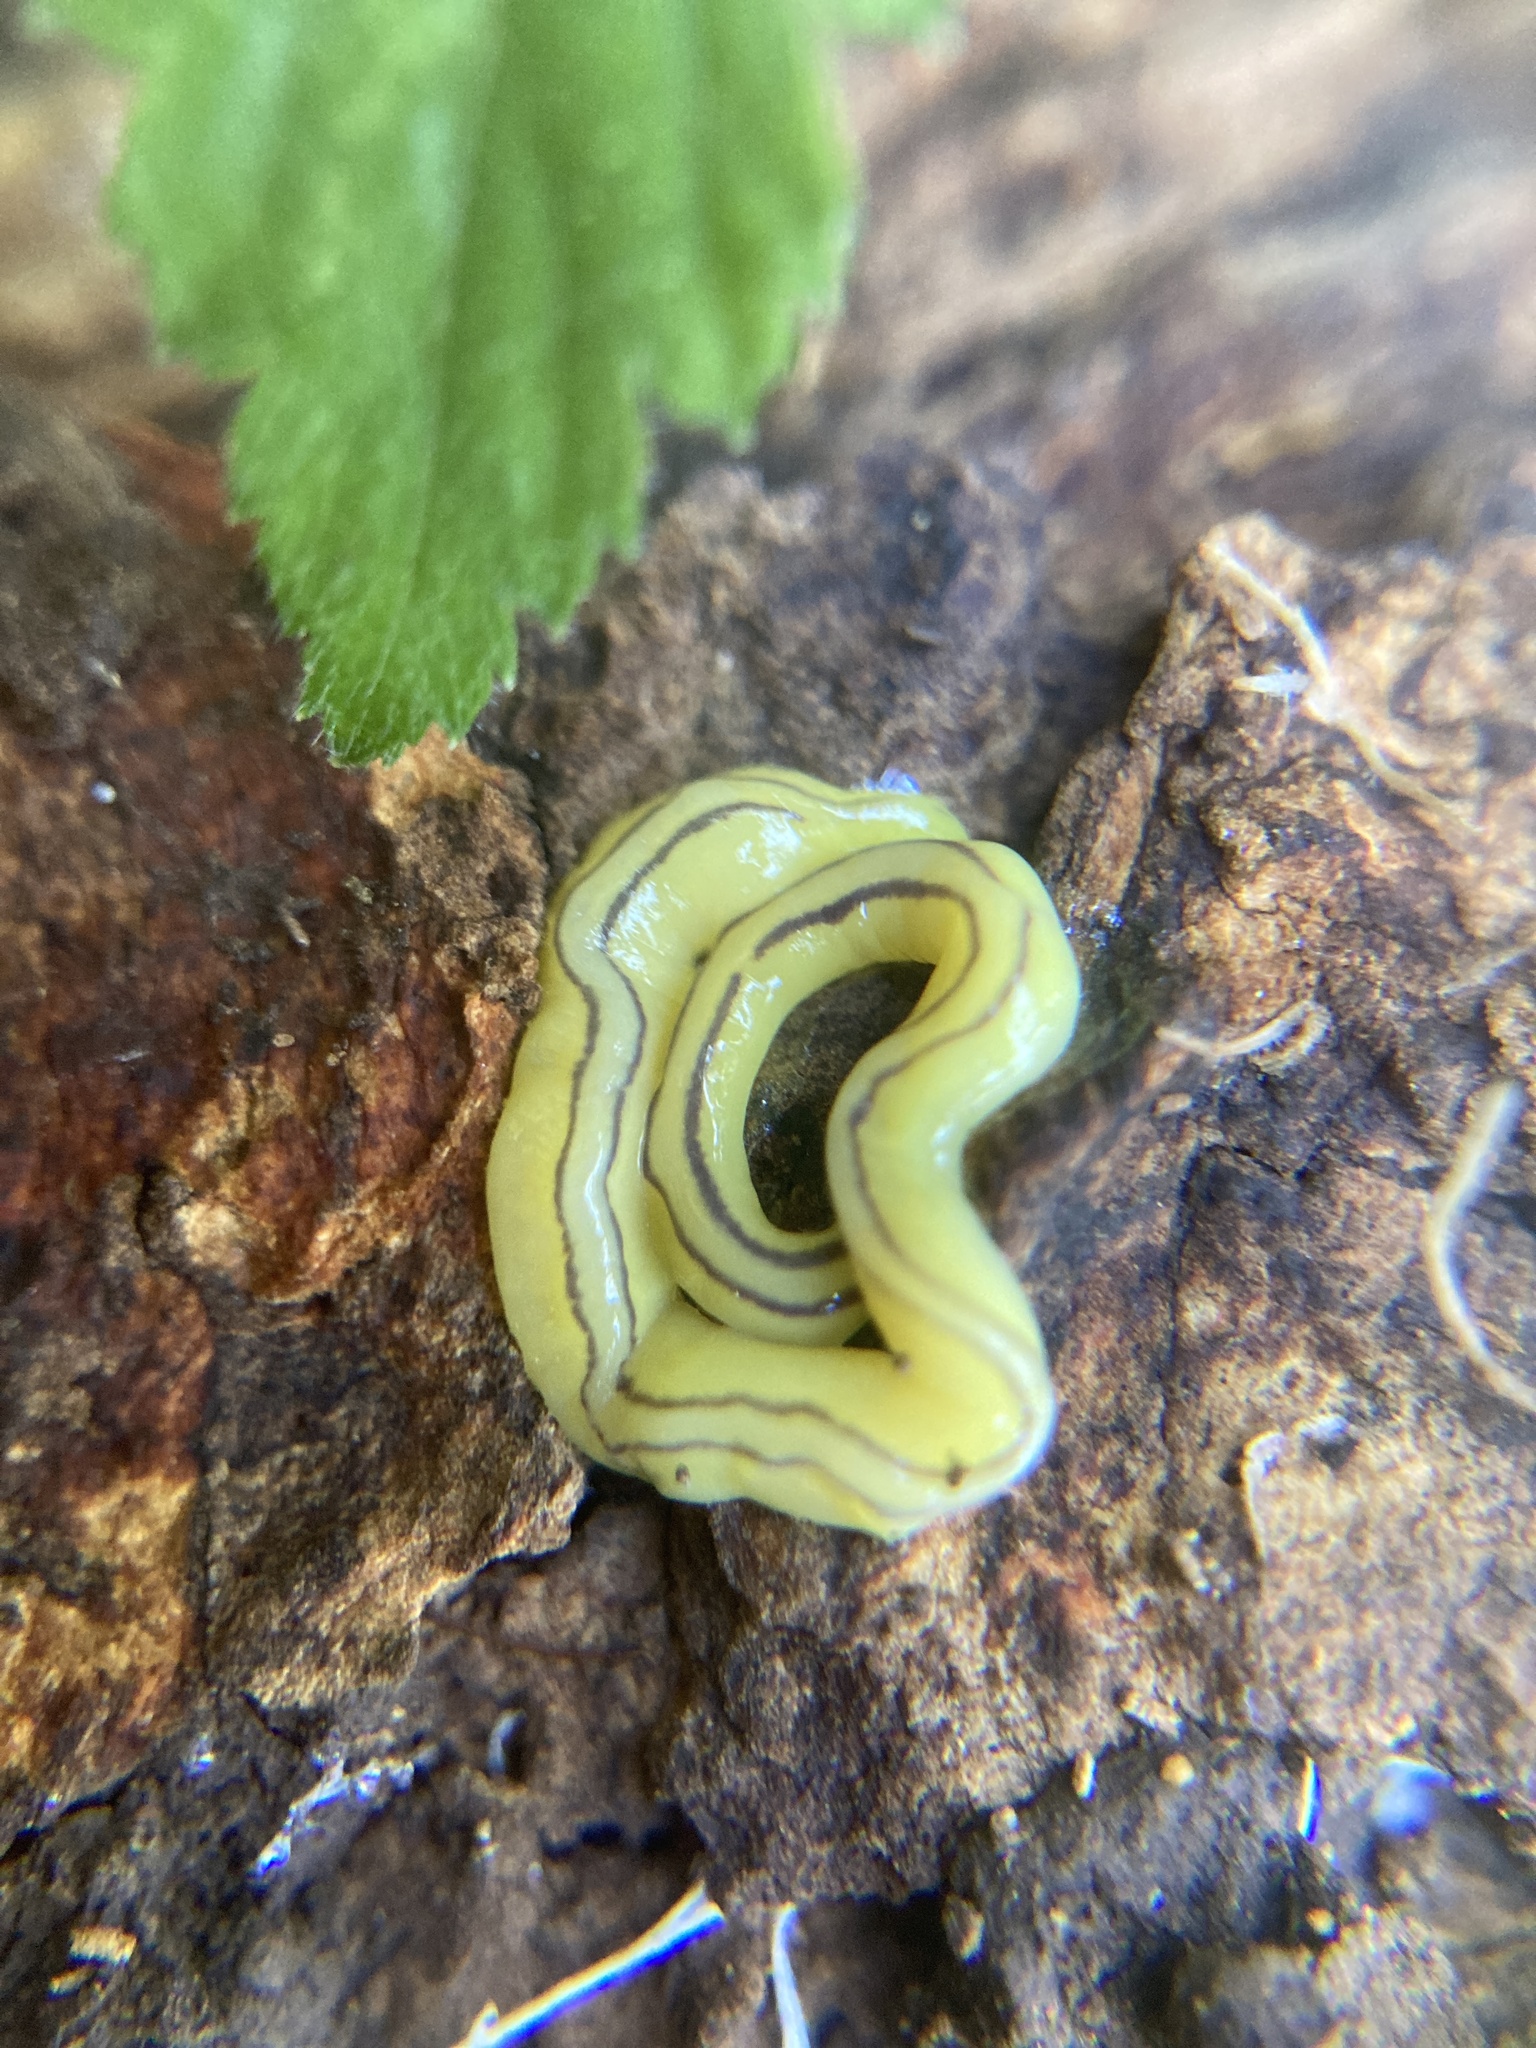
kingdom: Animalia
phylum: Platyhelminthes
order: Tricladida
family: Geoplanidae
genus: Caenoplana
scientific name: Caenoplana hillii
